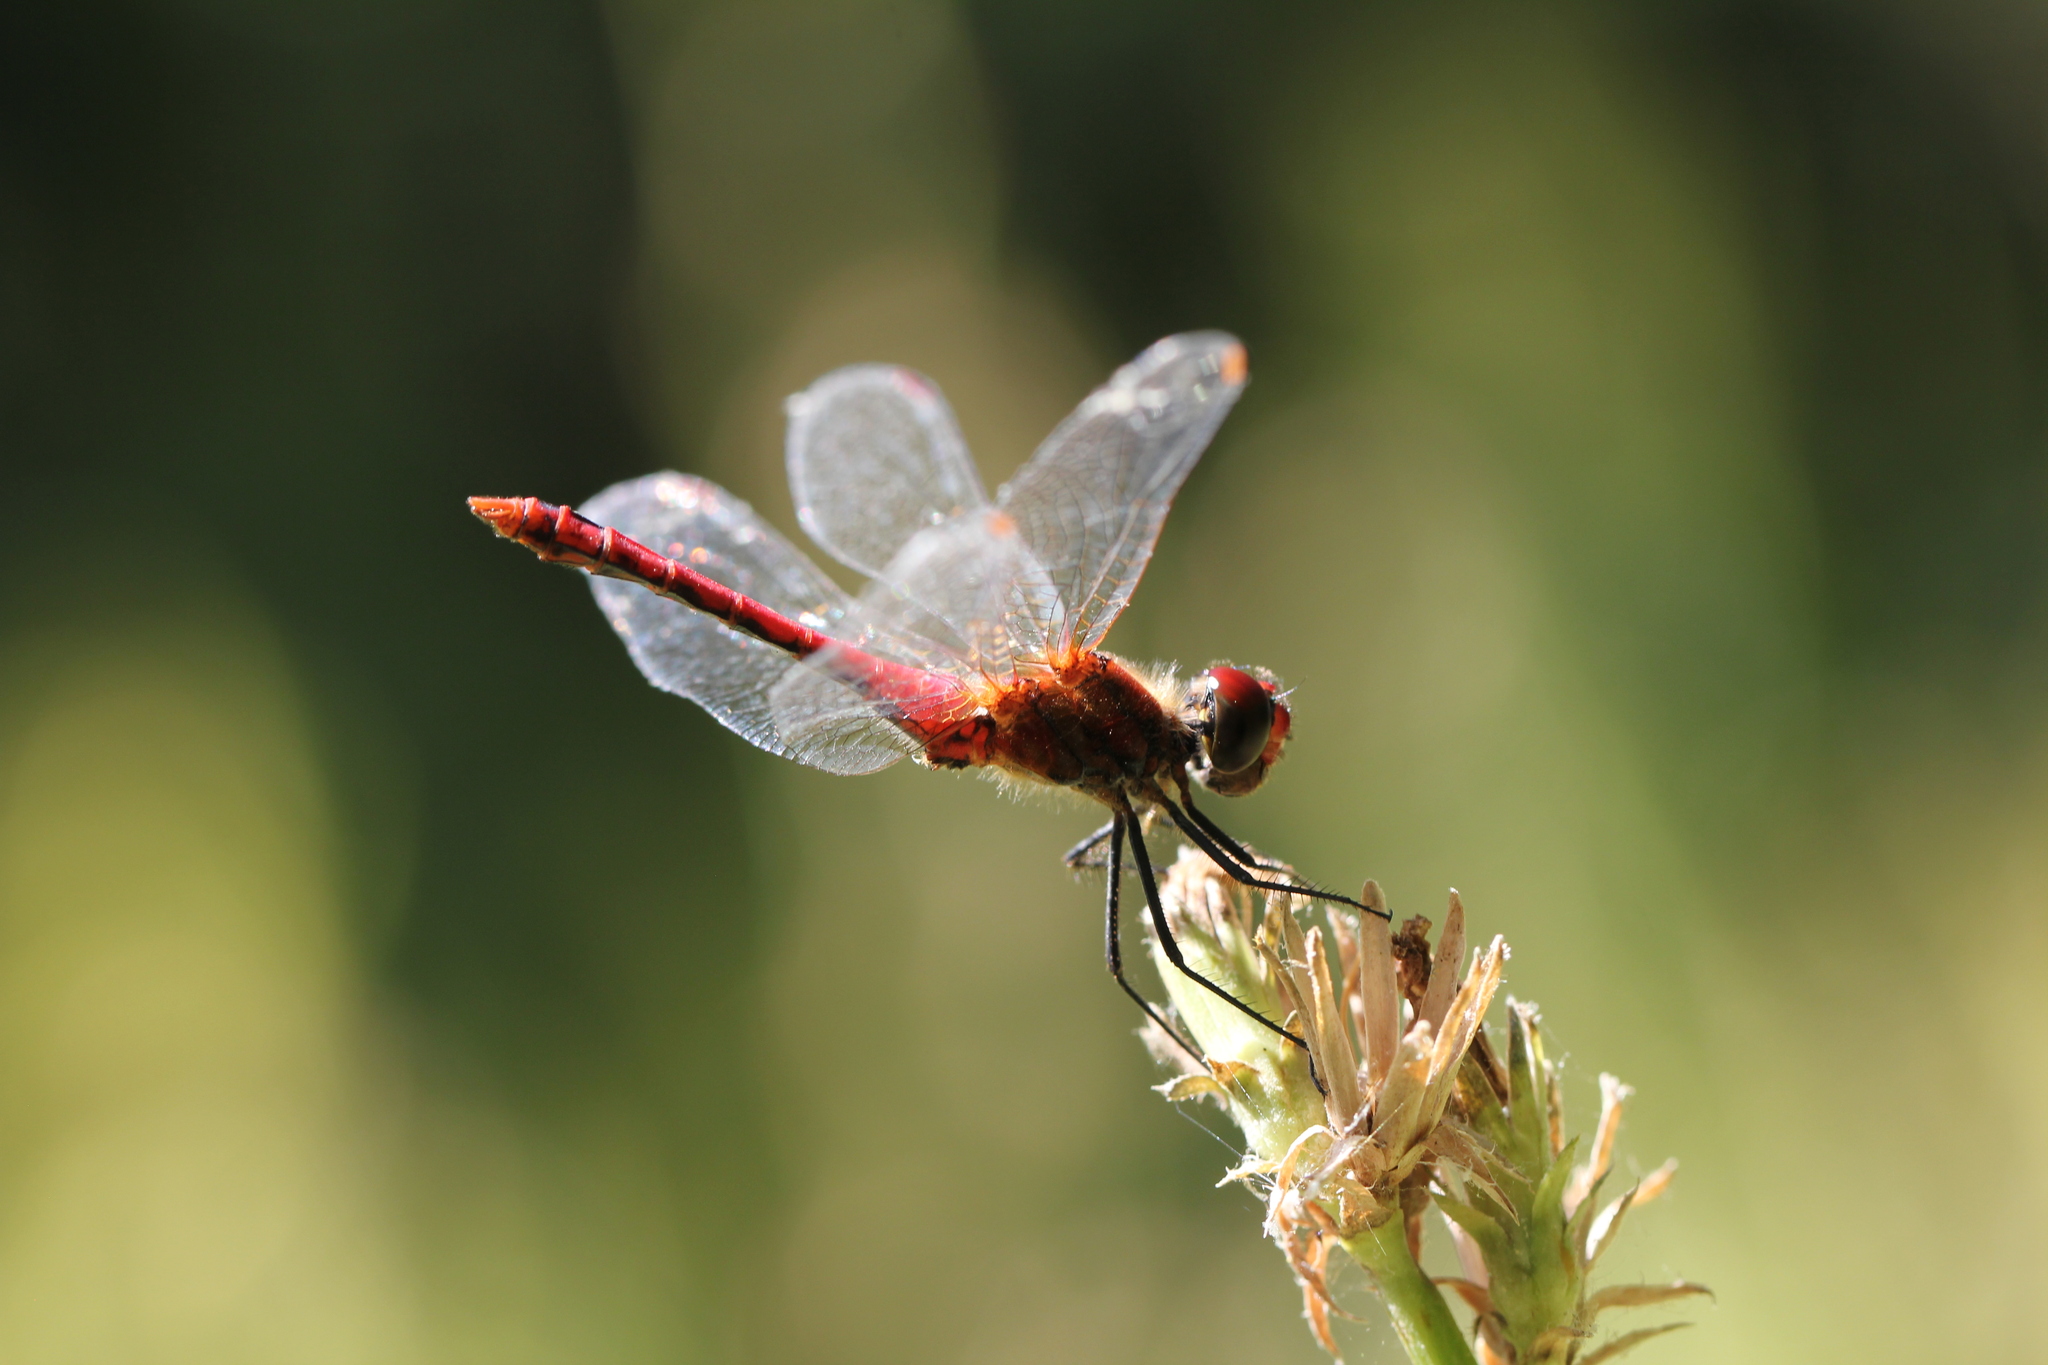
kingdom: Animalia
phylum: Arthropoda
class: Insecta
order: Odonata
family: Libellulidae
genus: Sympetrum
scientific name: Sympetrum sanguineum
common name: Ruddy darter
